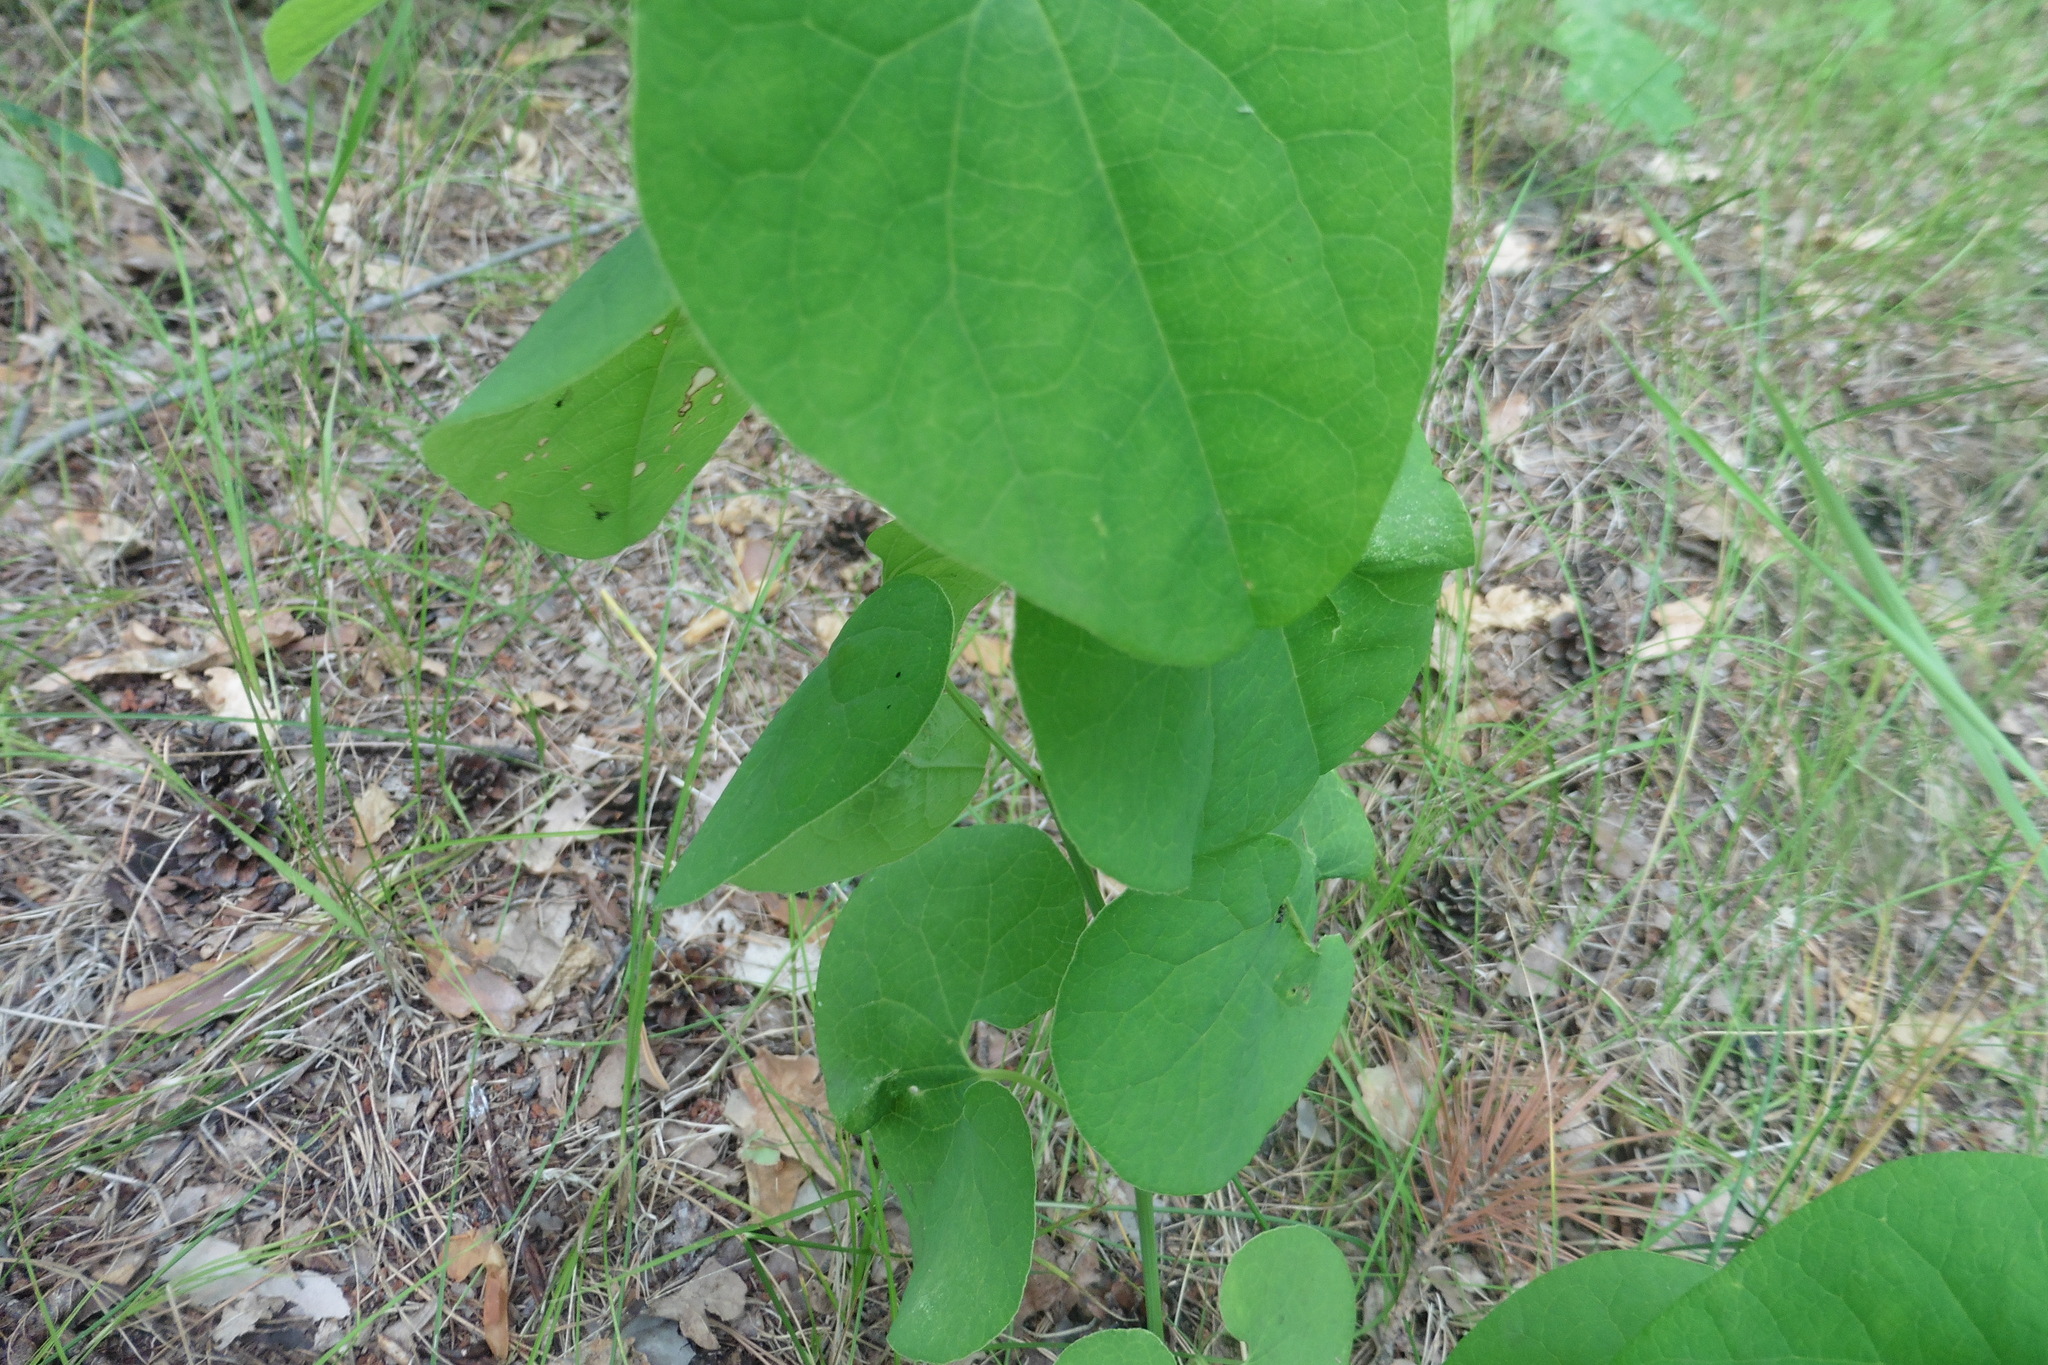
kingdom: Plantae
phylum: Tracheophyta
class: Magnoliopsida
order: Piperales
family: Aristolochiaceae
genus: Aristolochia
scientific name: Aristolochia clematitis
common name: Birthwort
